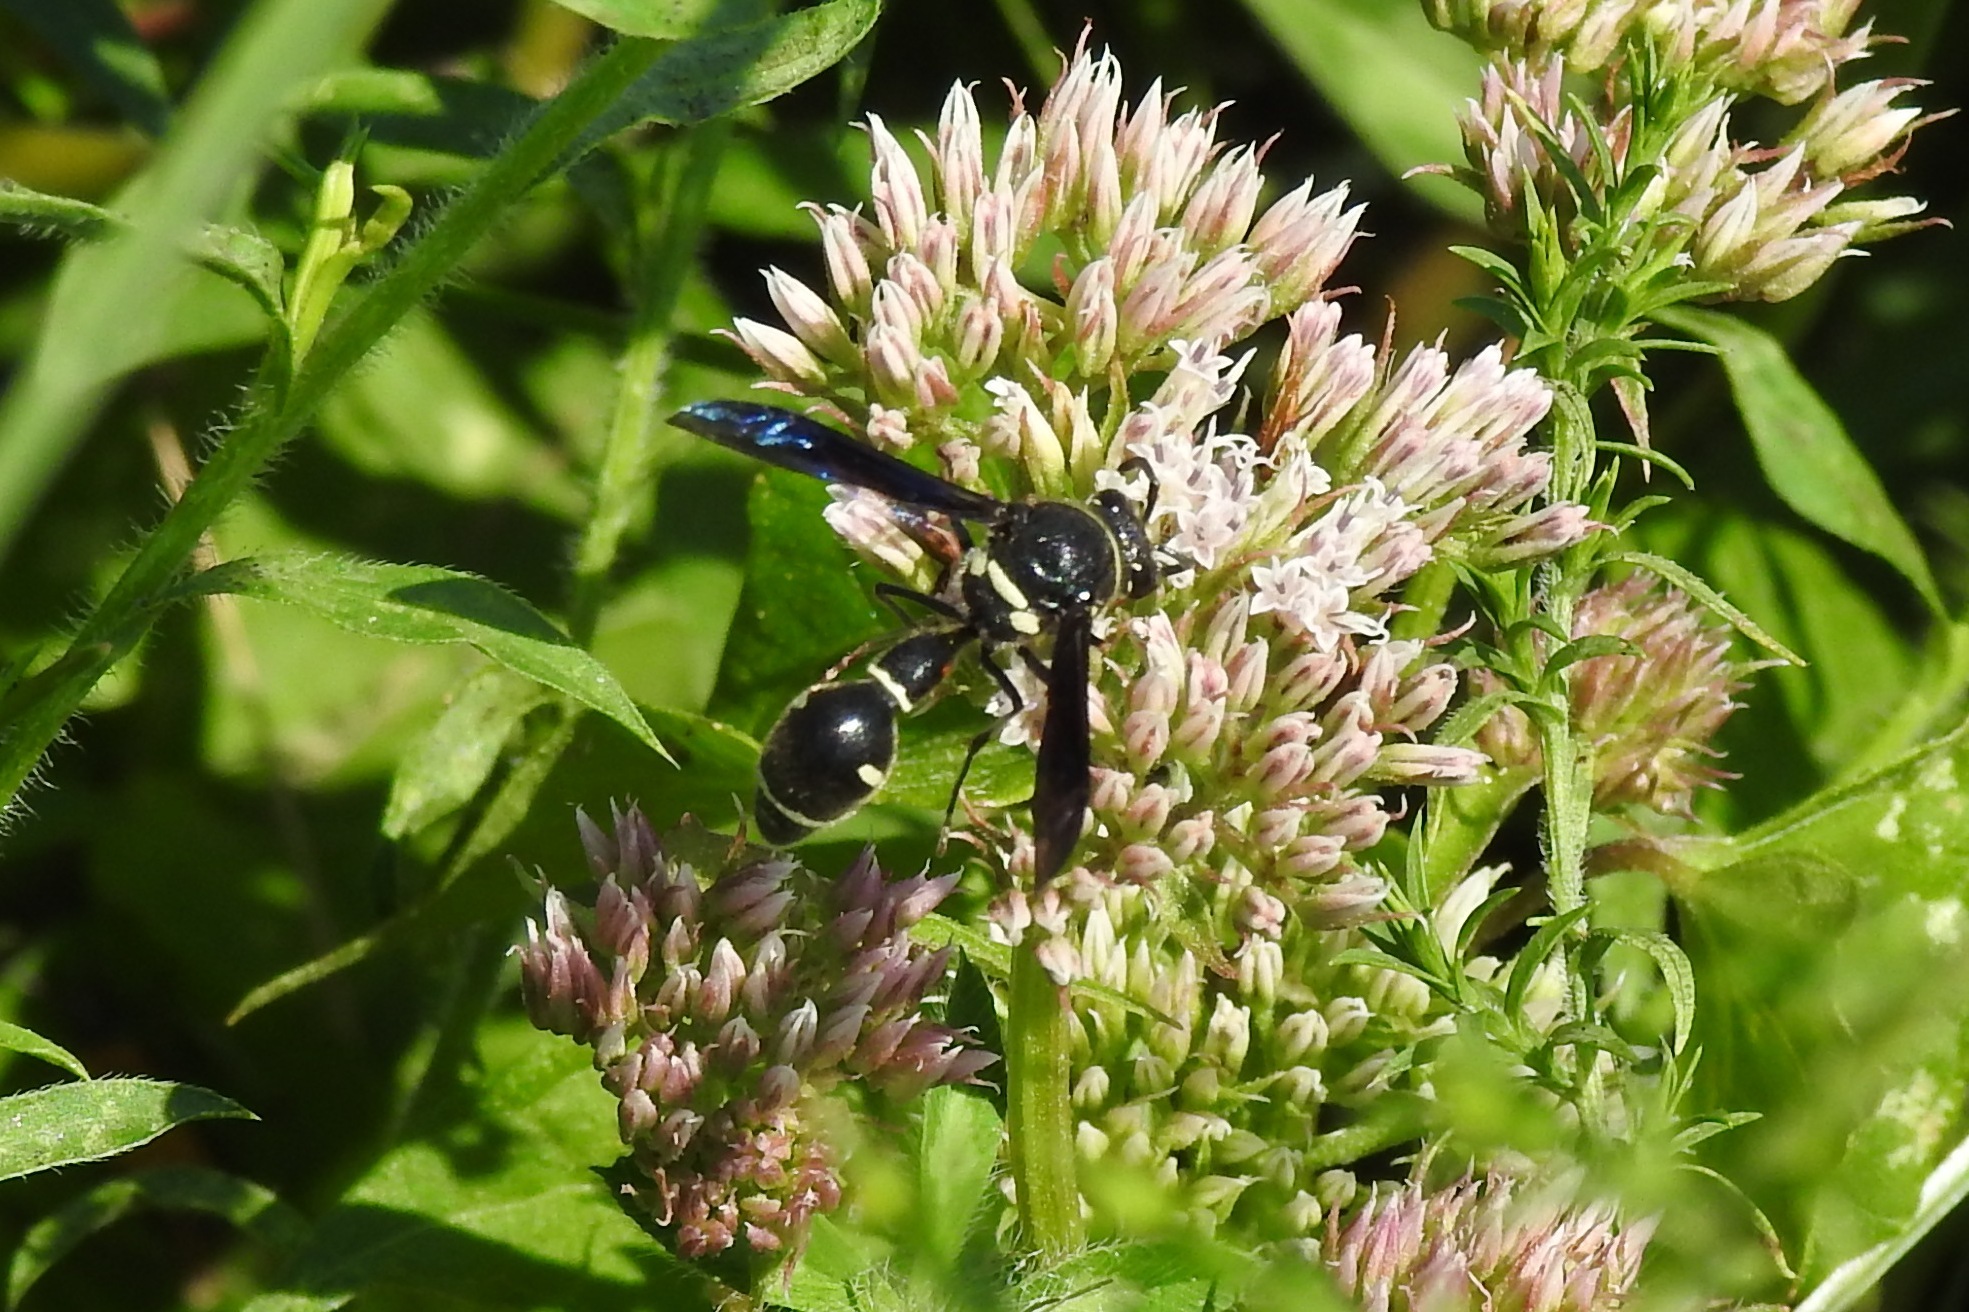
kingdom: Animalia
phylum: Arthropoda
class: Insecta
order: Hymenoptera
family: Vespidae
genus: Eumenes
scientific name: Eumenes fraternus
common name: Fraternal potter wasp
